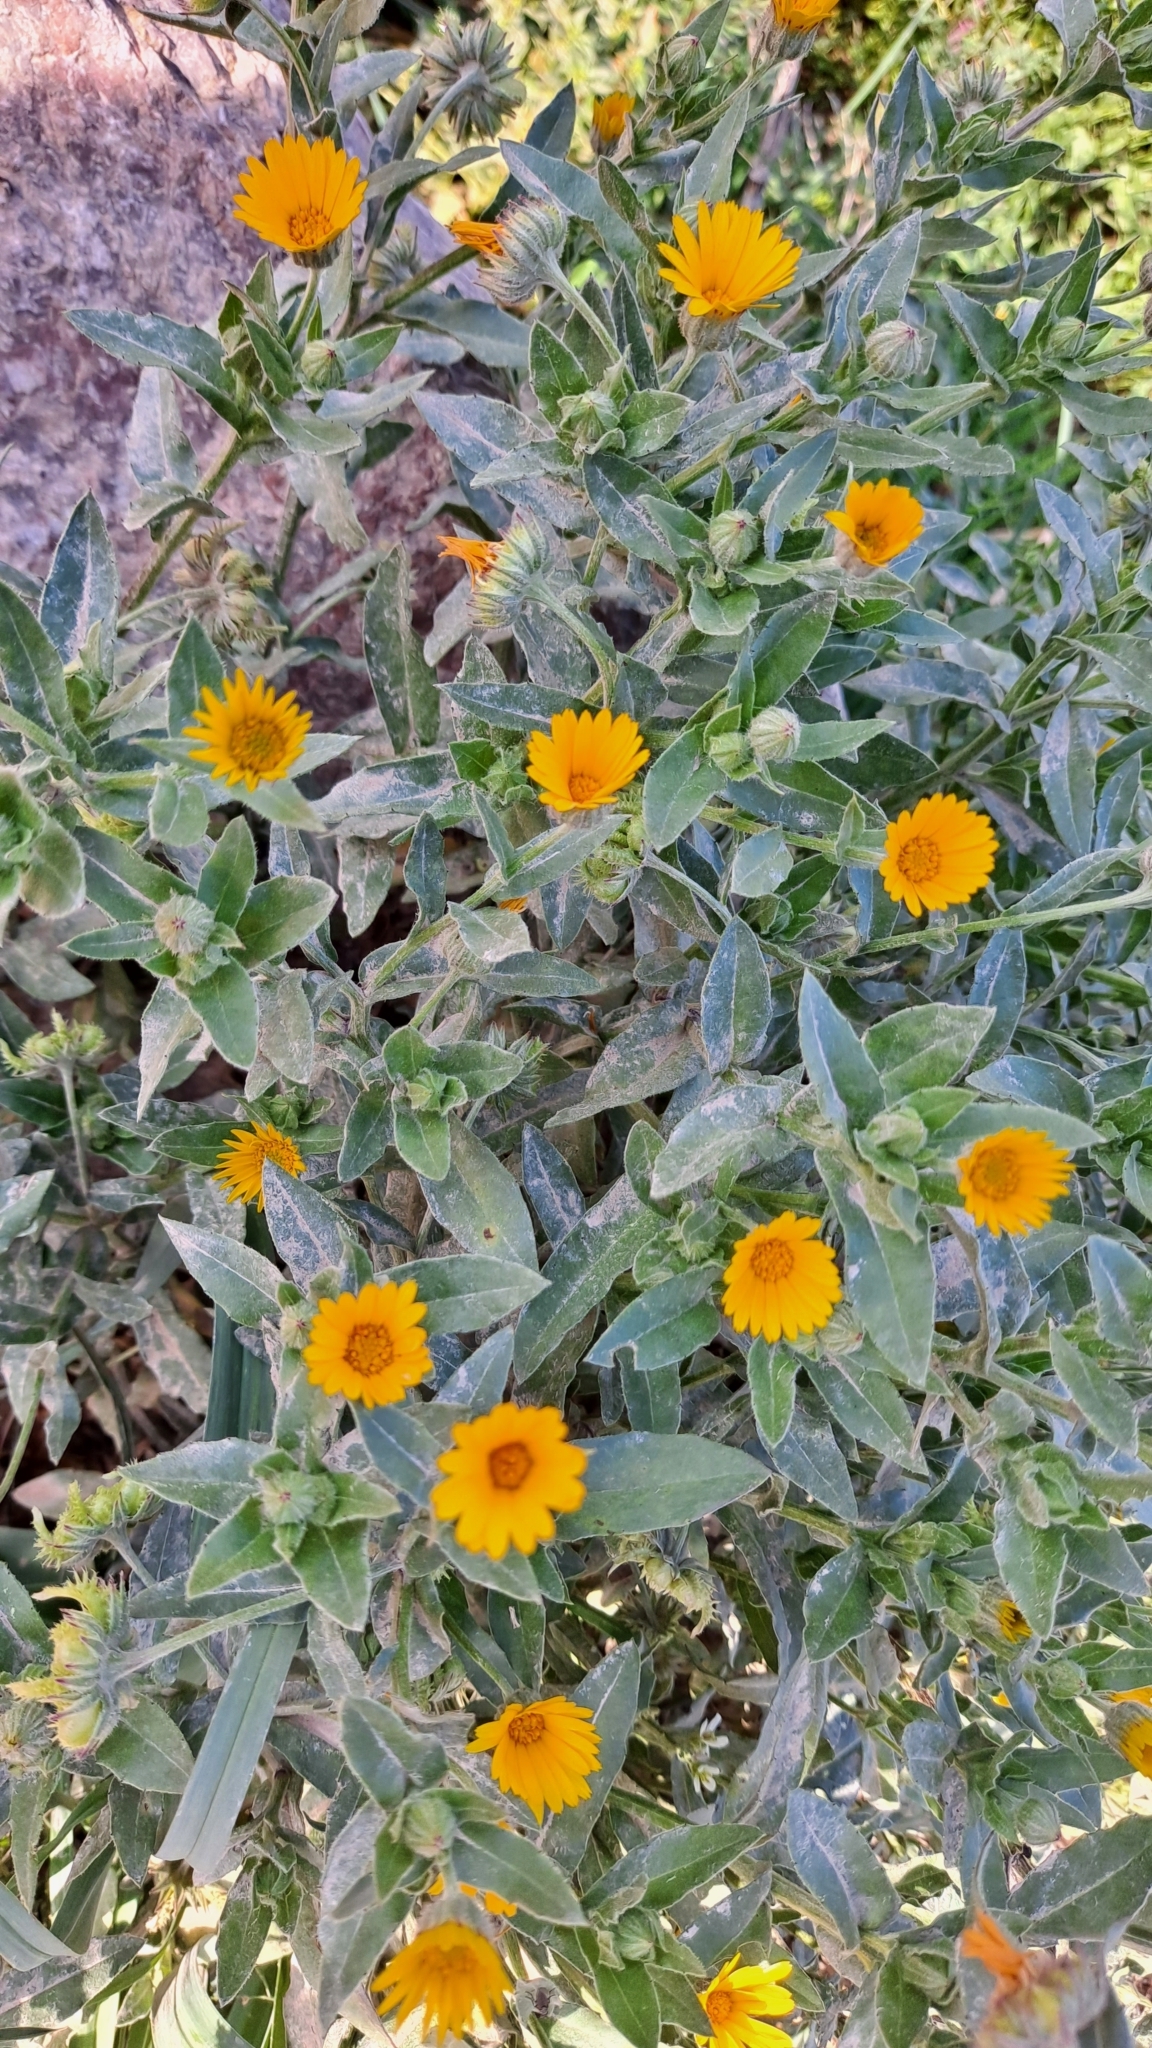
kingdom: Plantae
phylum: Tracheophyta
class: Magnoliopsida
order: Asterales
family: Asteraceae
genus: Calendula
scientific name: Calendula arvensis
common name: Field marigold
